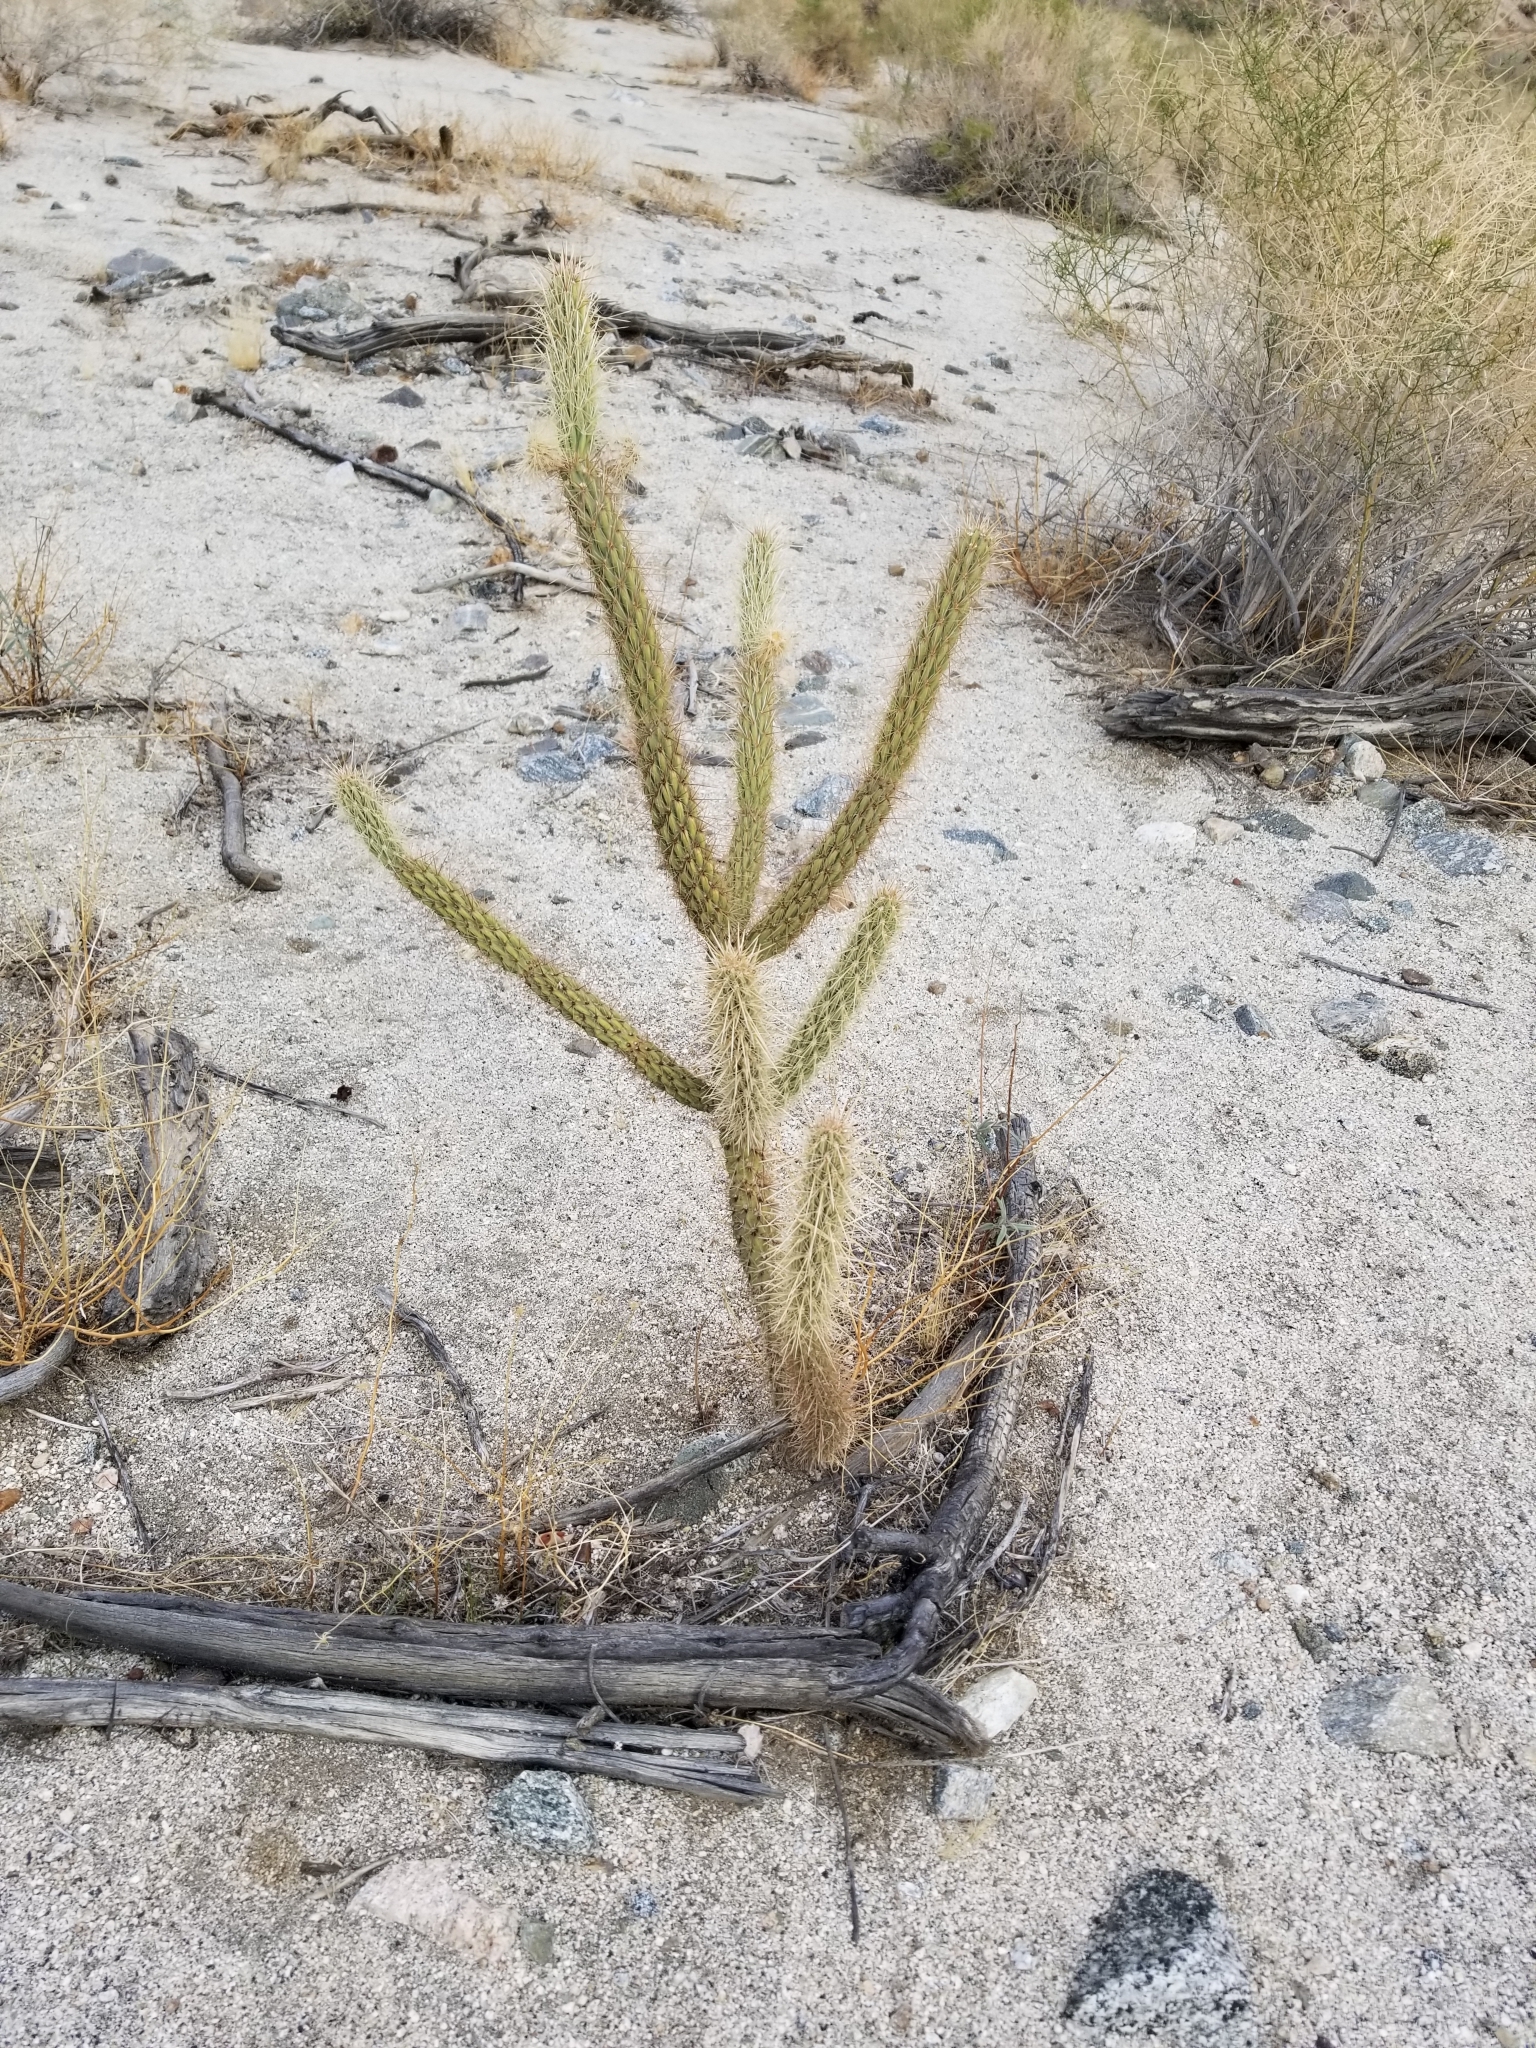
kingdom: Plantae
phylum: Tracheophyta
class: Magnoliopsida
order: Caryophyllales
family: Cactaceae
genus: Cylindropuntia
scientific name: Cylindropuntia ganderi
